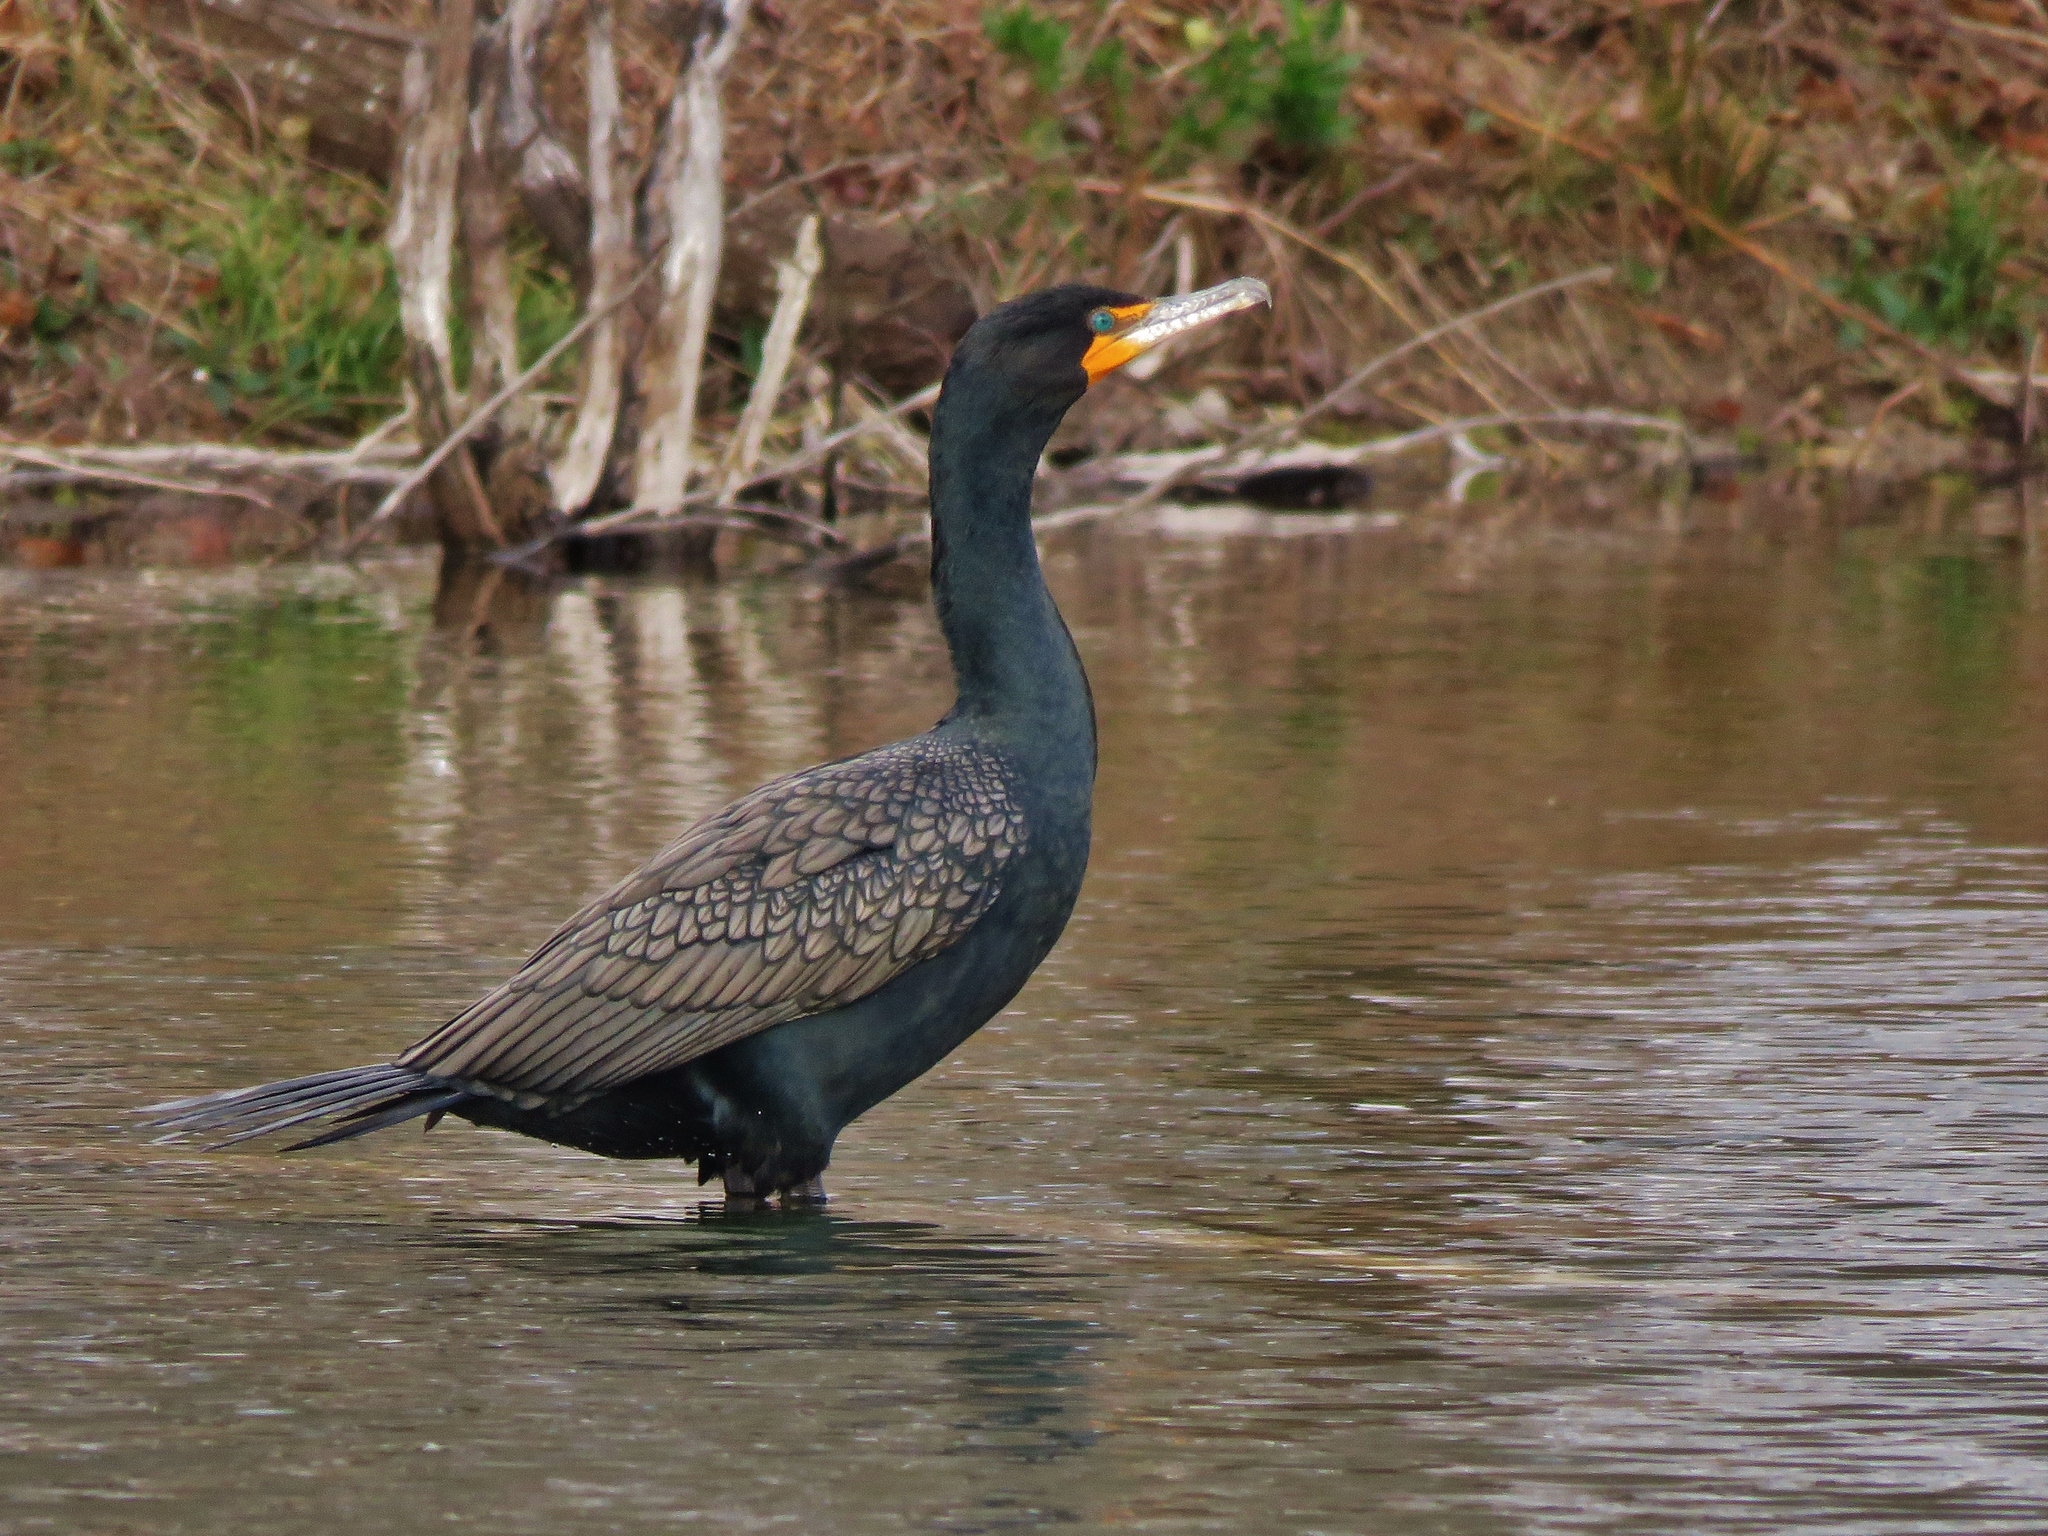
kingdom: Animalia
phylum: Chordata
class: Aves
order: Suliformes
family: Phalacrocoracidae
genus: Phalacrocorax
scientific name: Phalacrocorax auritus
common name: Double-crested cormorant
